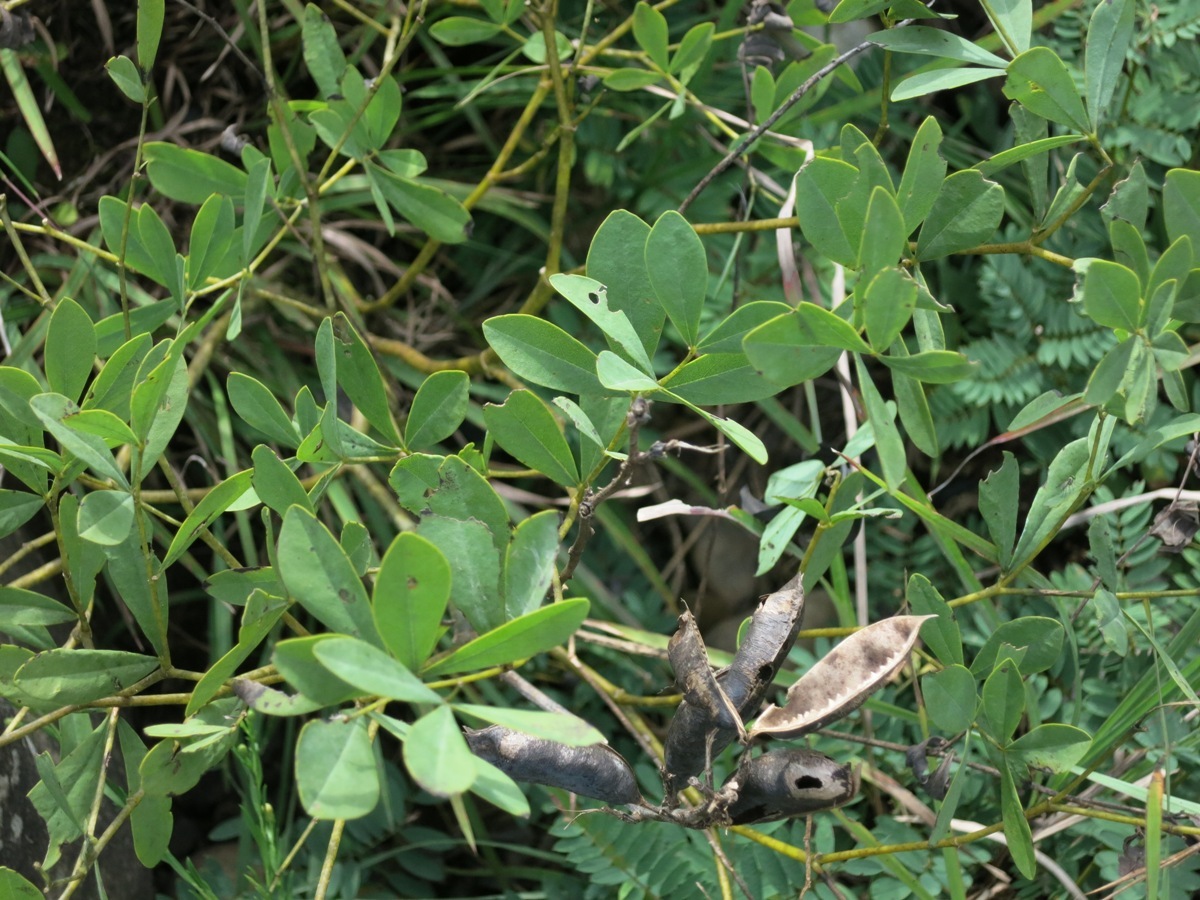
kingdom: Plantae
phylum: Tracheophyta
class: Magnoliopsida
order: Fabales
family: Fabaceae
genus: Baptisia
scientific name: Baptisia tinctoria
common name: Wild indigo
